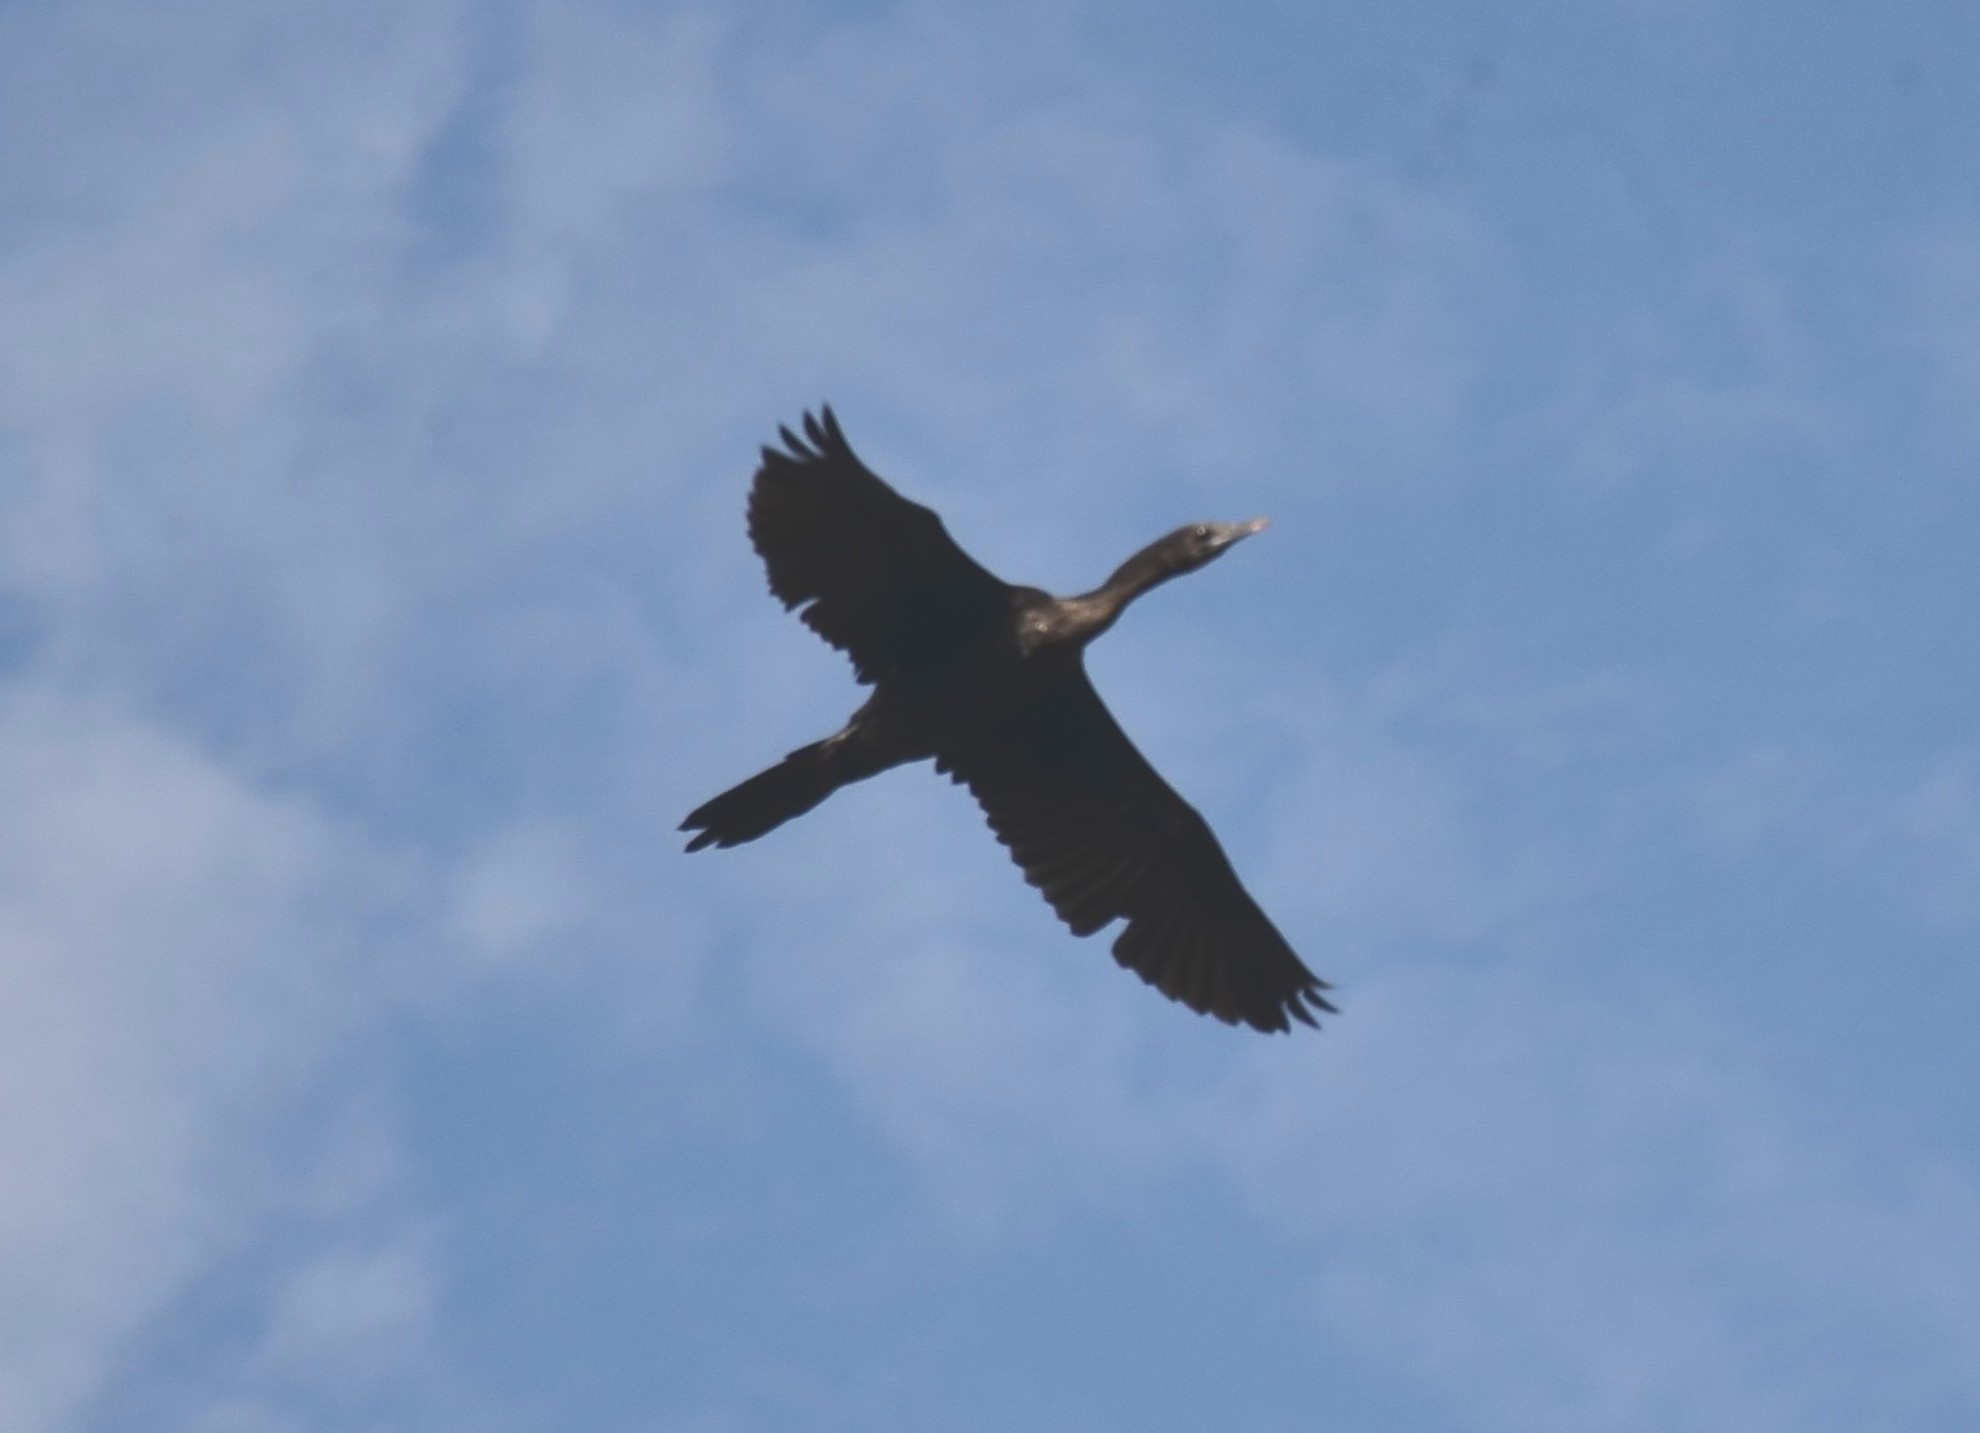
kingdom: Animalia
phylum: Chordata
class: Aves
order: Suliformes
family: Phalacrocoracidae
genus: Microcarbo
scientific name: Microcarbo niger
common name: Little cormorant
